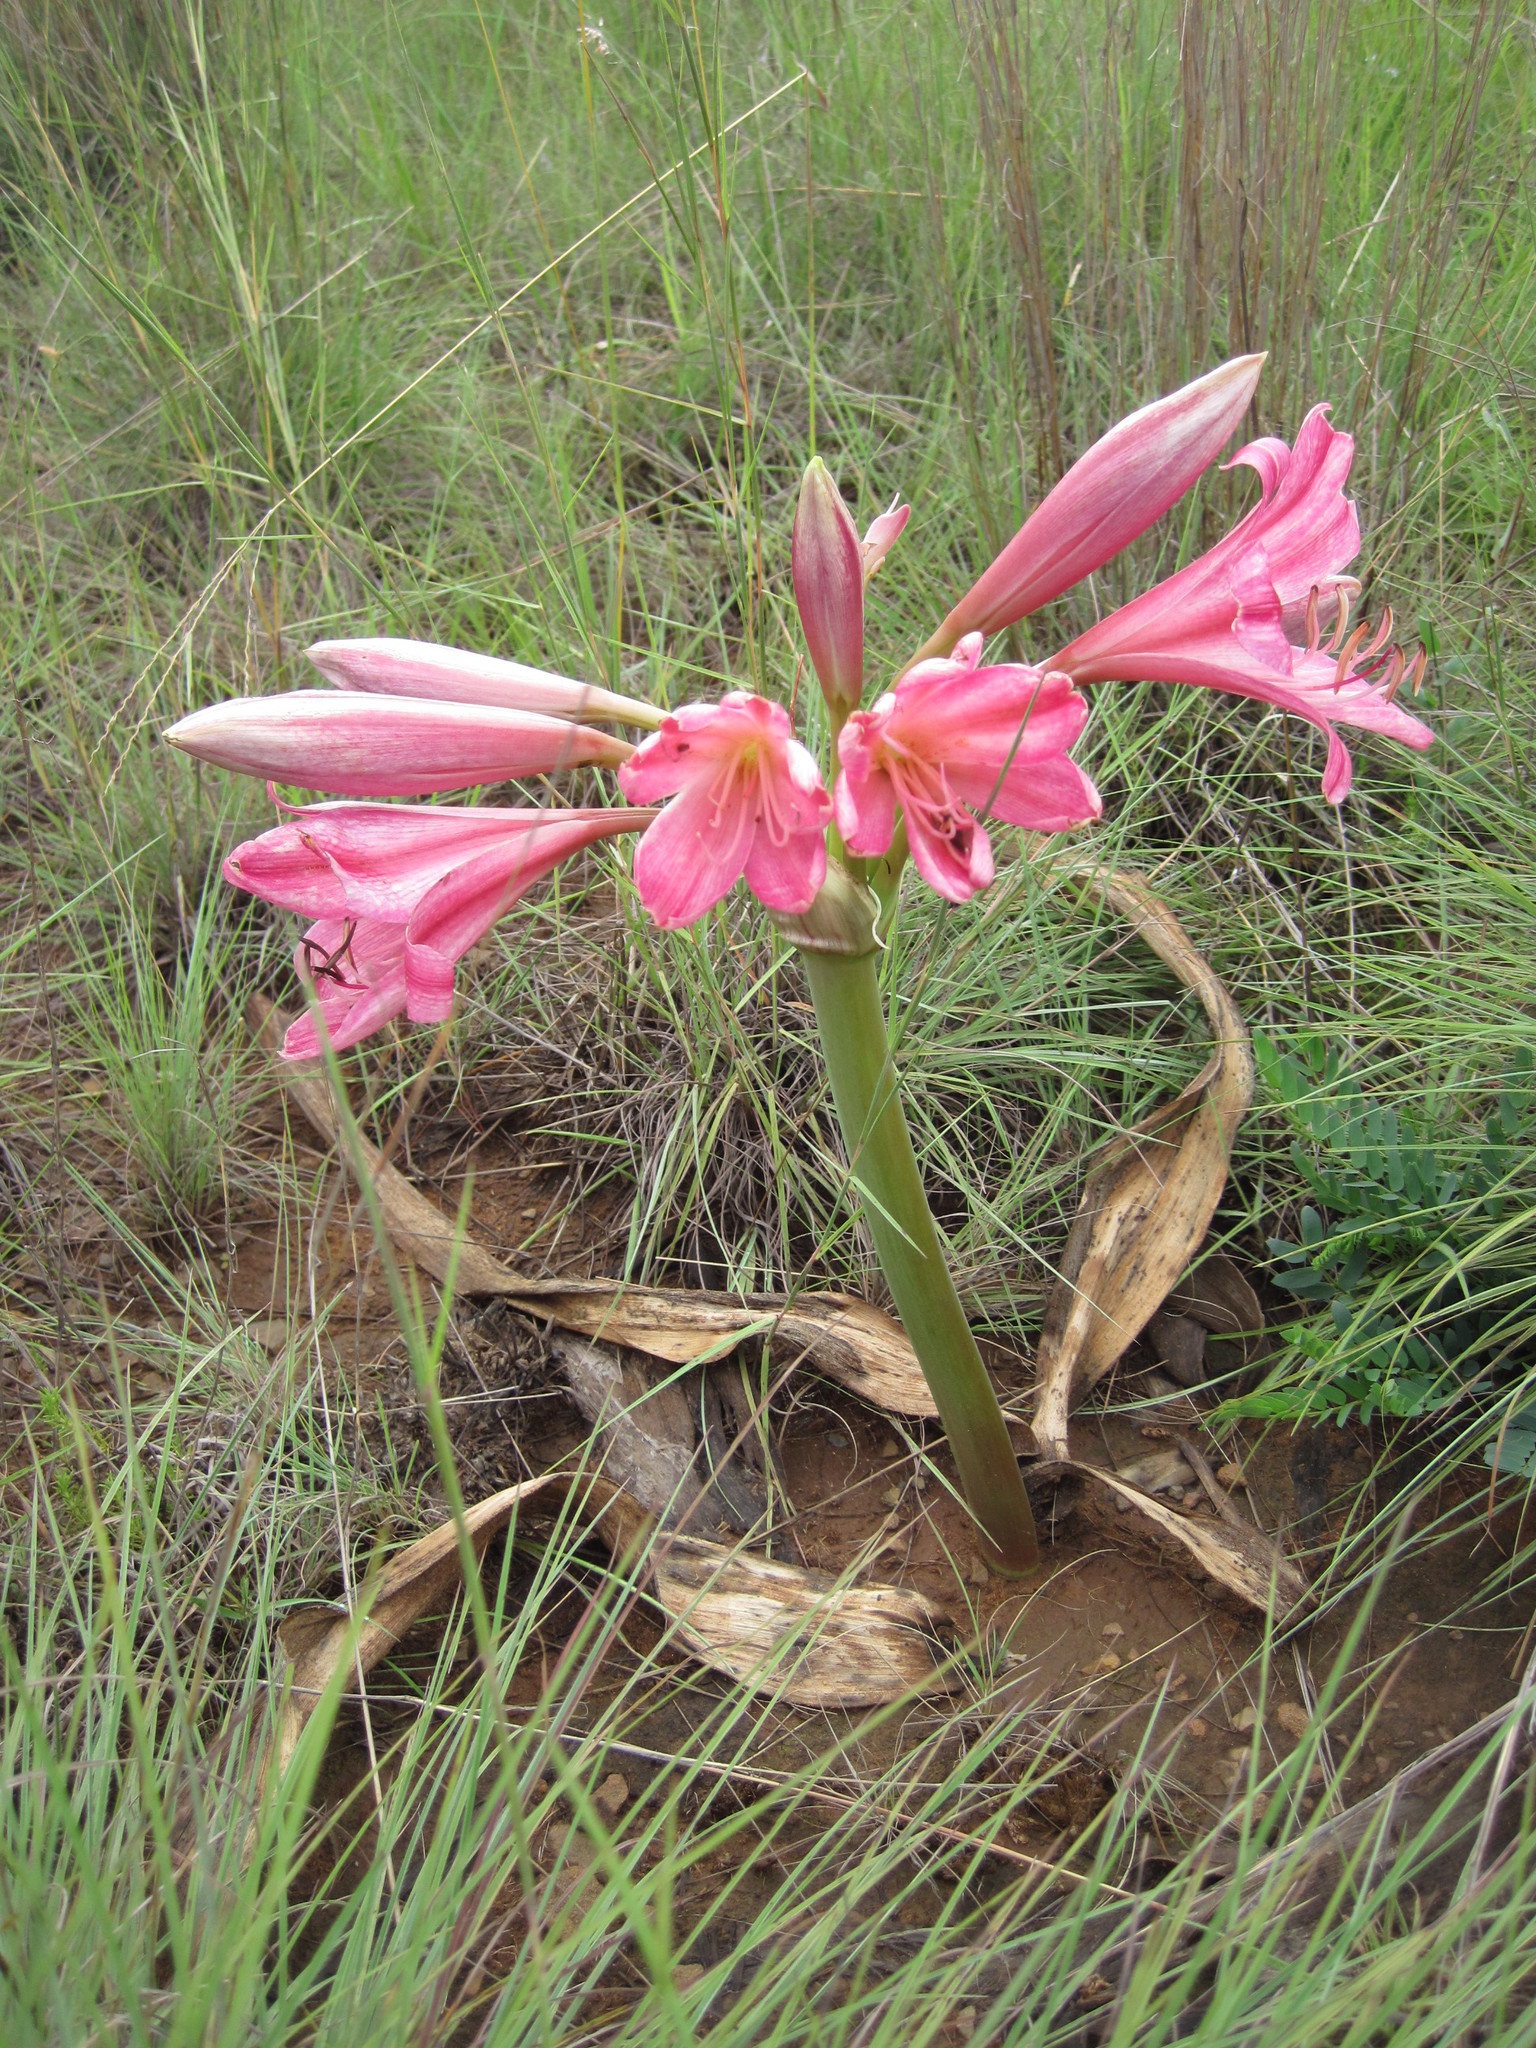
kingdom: Plantae
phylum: Tracheophyta
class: Liliopsida
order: Asparagales
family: Amaryllidaceae
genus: Crinum
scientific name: Crinum graminicola
